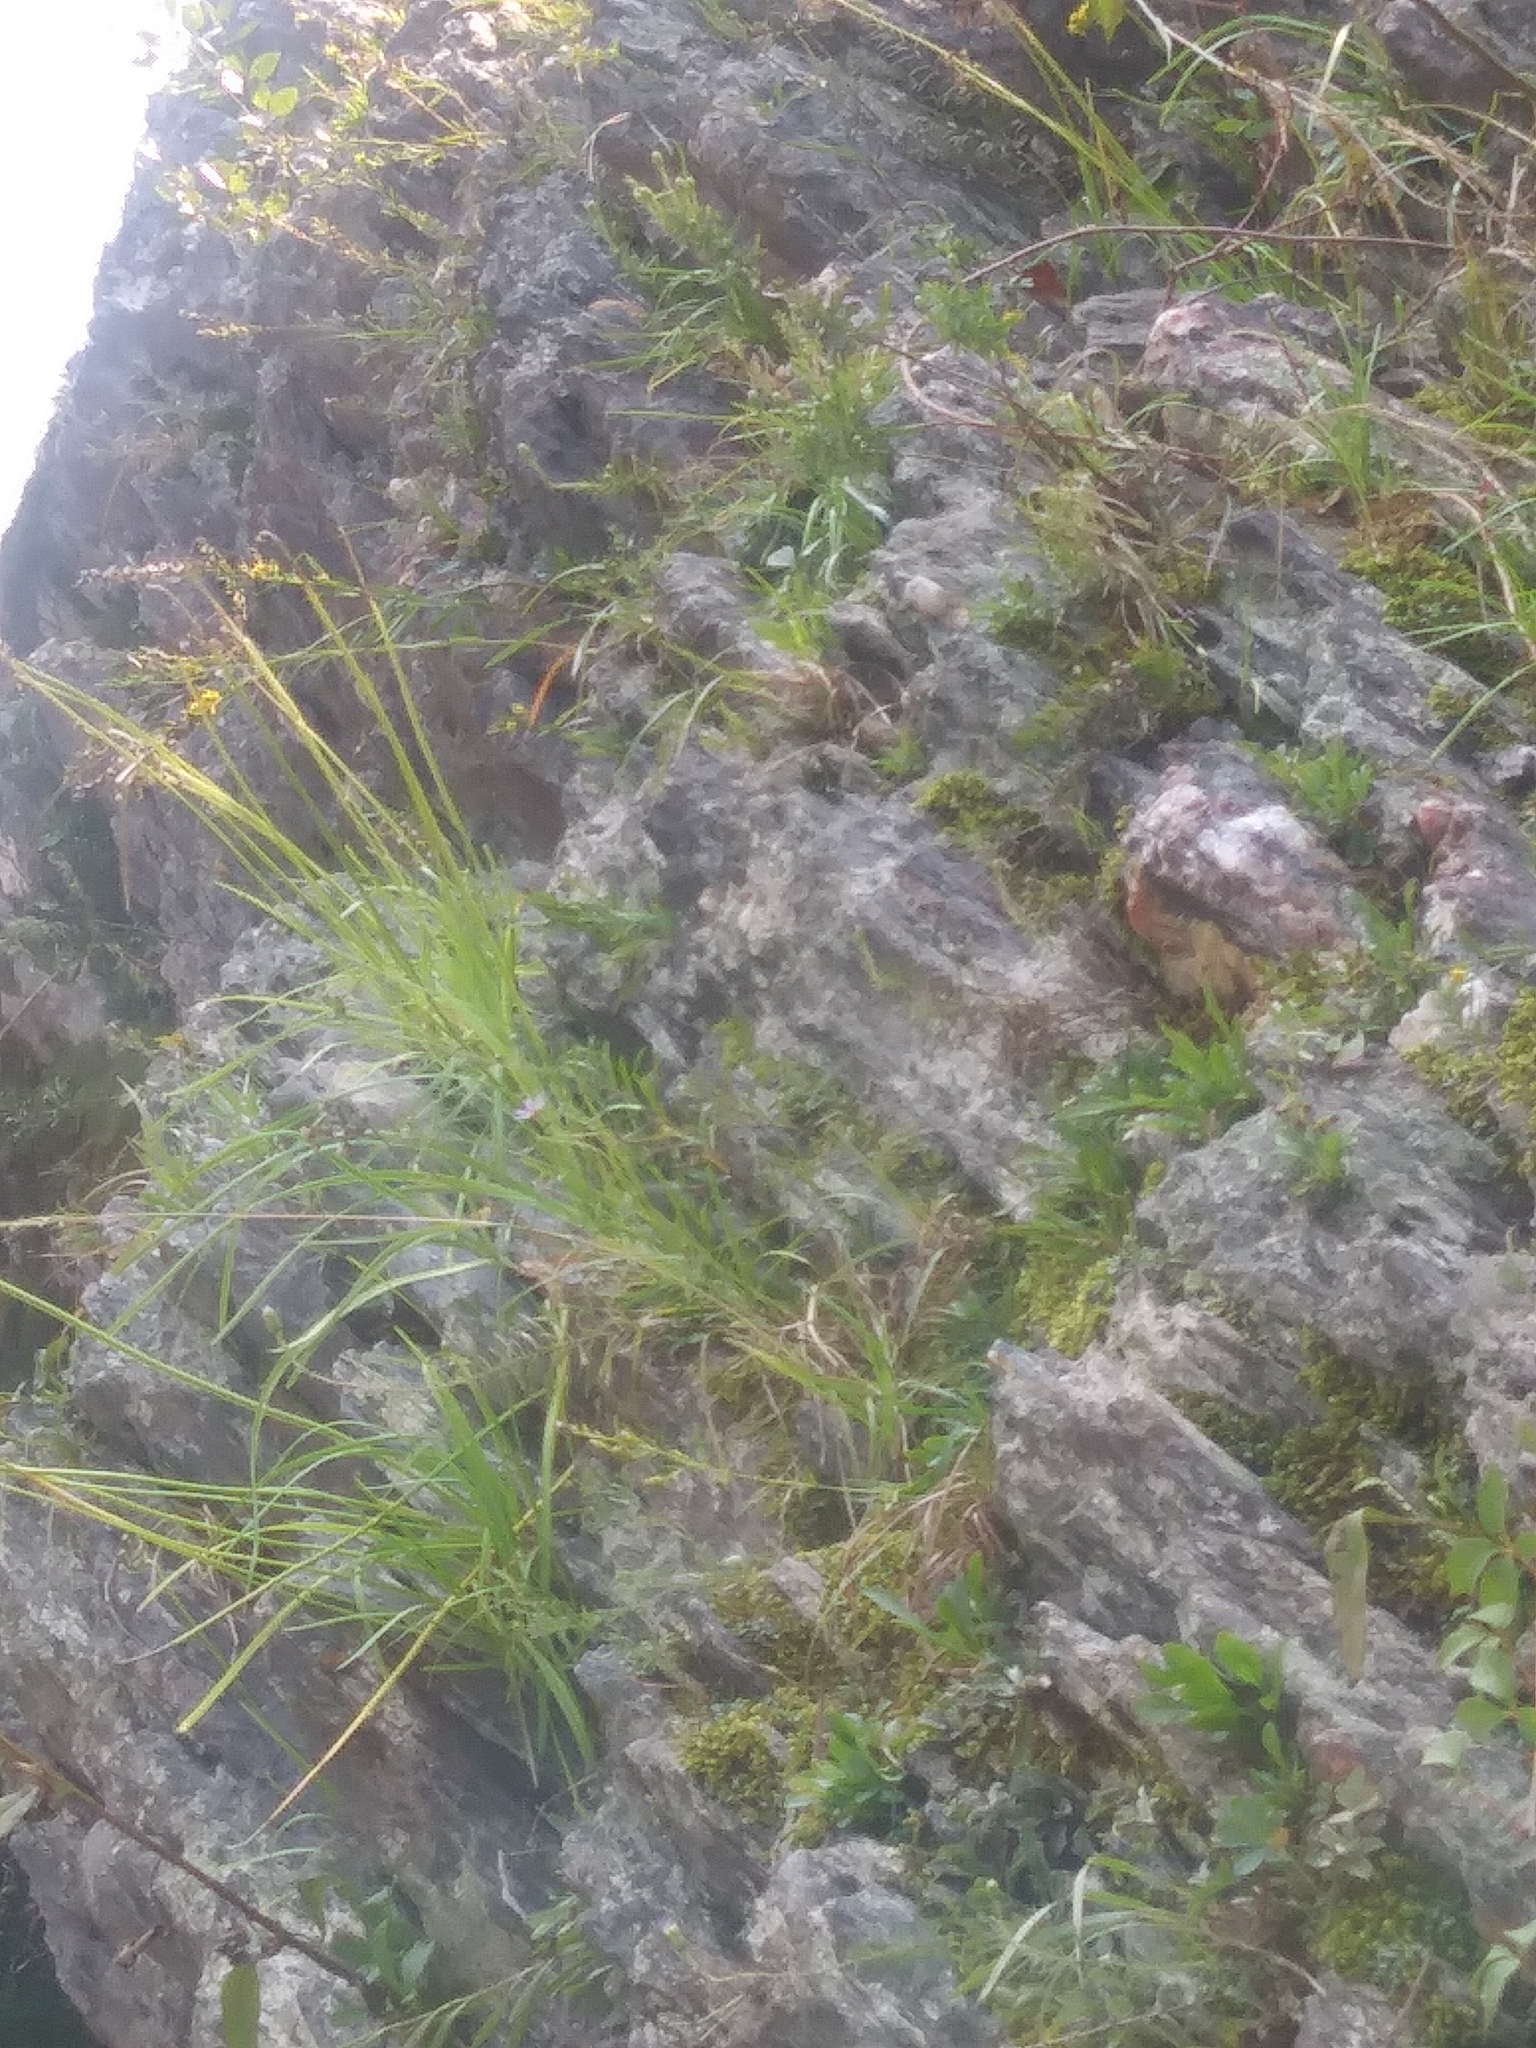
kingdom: Plantae
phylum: Tracheophyta
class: Magnoliopsida
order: Asterales
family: Asteraceae
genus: Ionactis
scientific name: Ionactis linariifolia
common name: Flax-leaf aster
